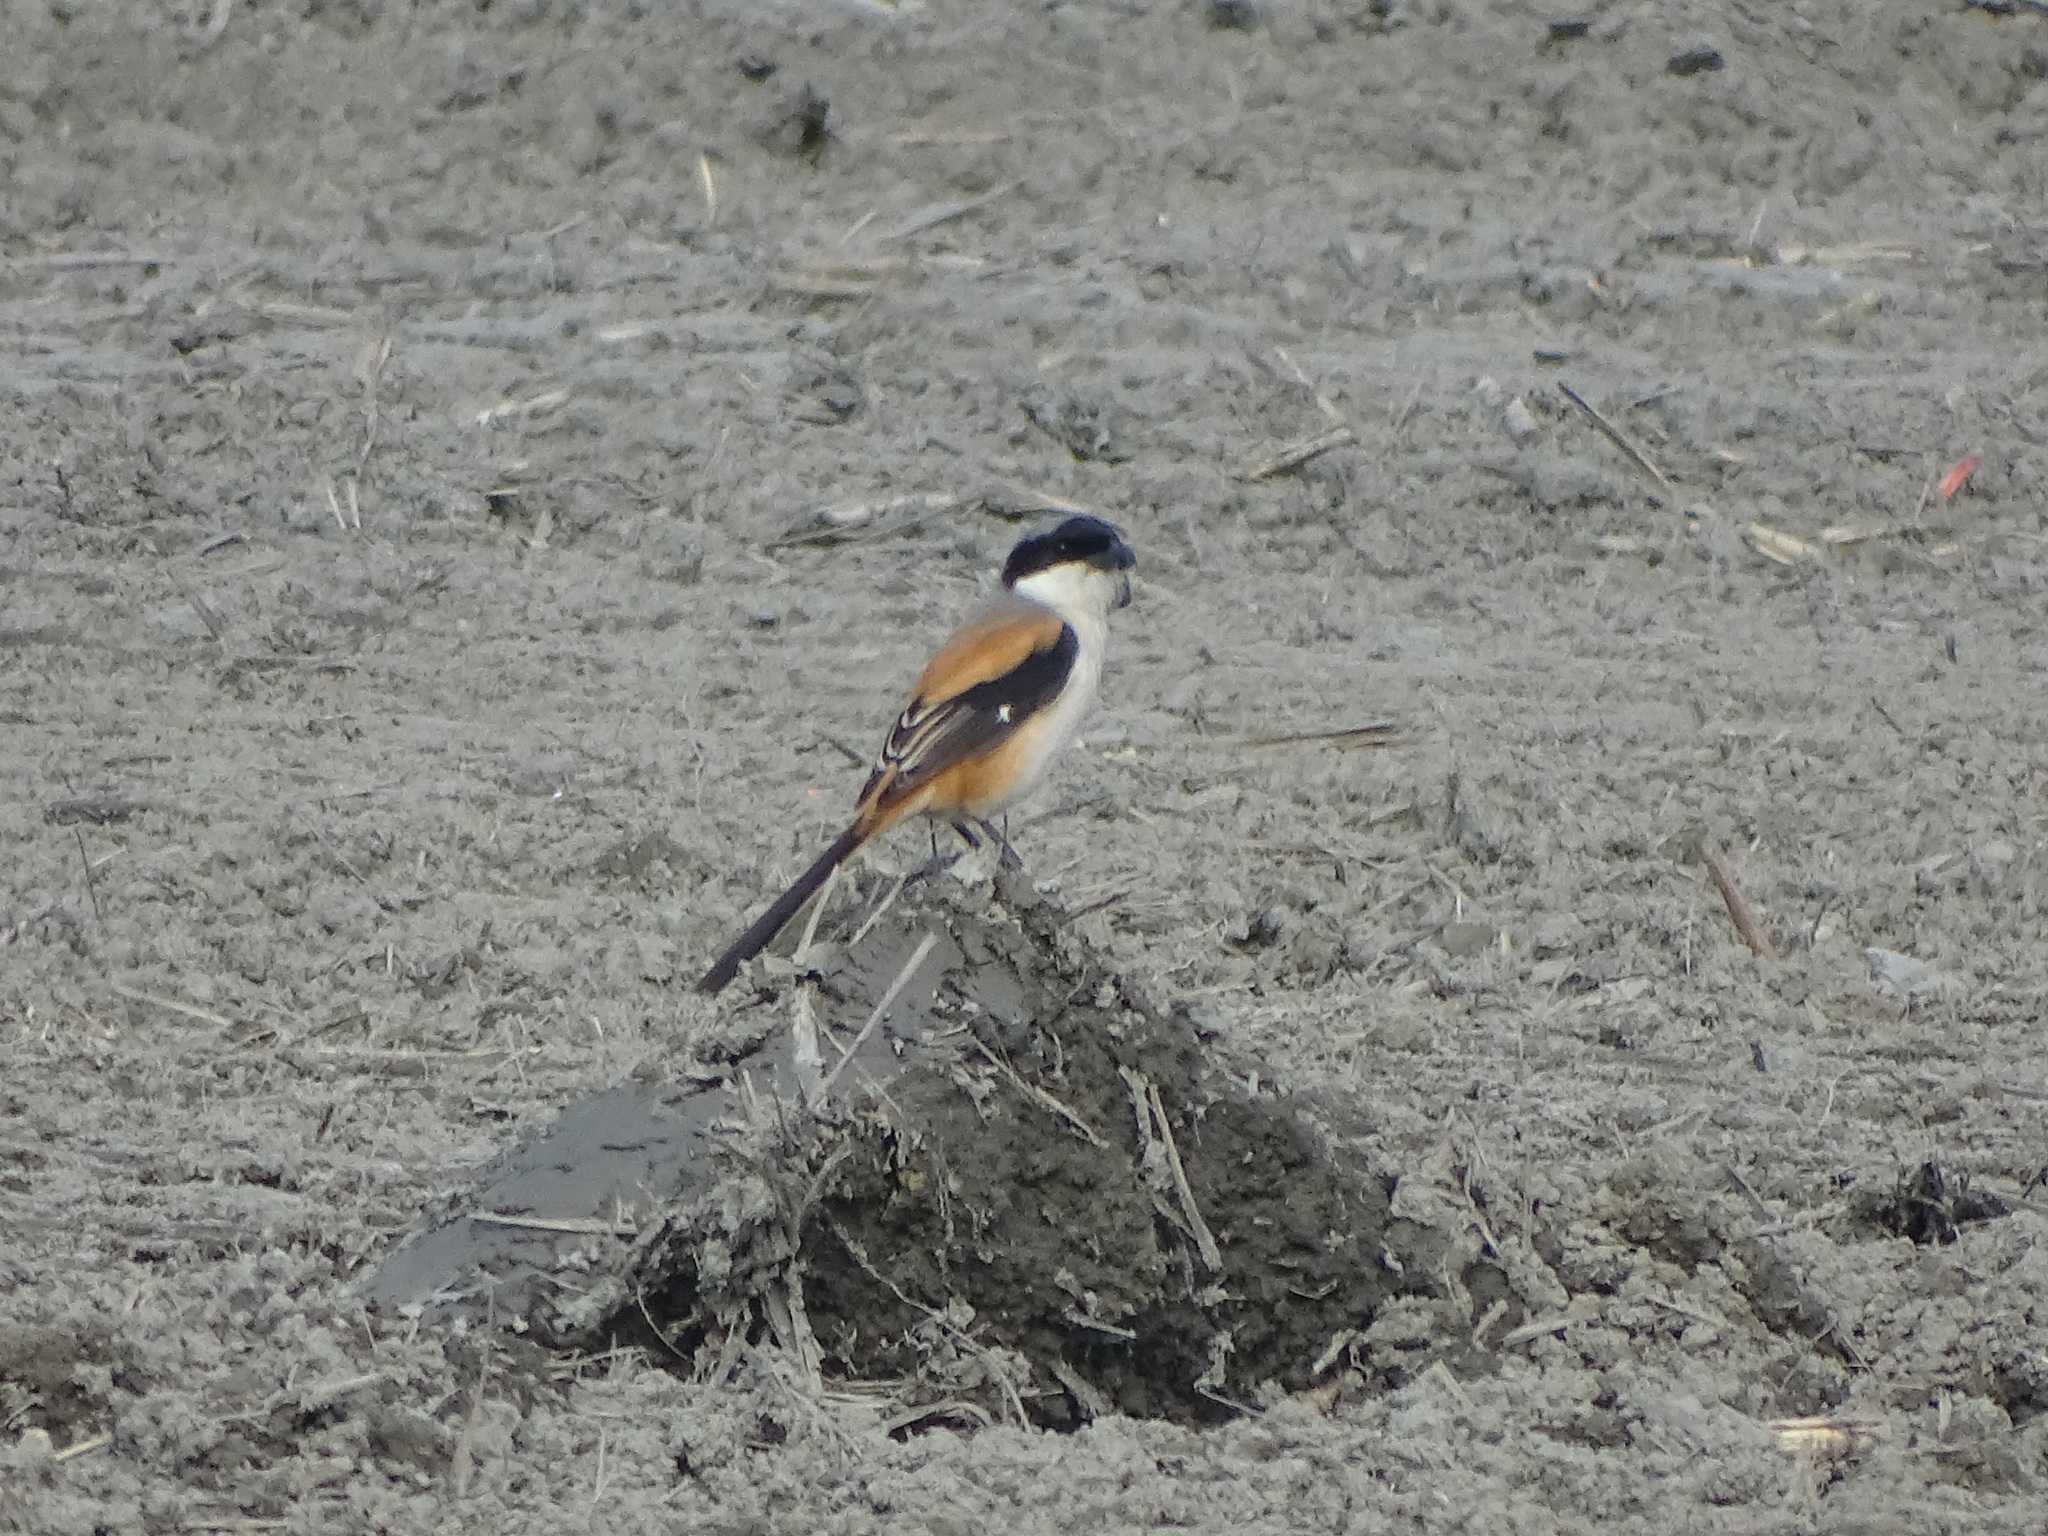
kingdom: Animalia
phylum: Chordata
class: Aves
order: Passeriformes
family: Laniidae
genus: Lanius
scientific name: Lanius schach
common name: Long-tailed shrike
